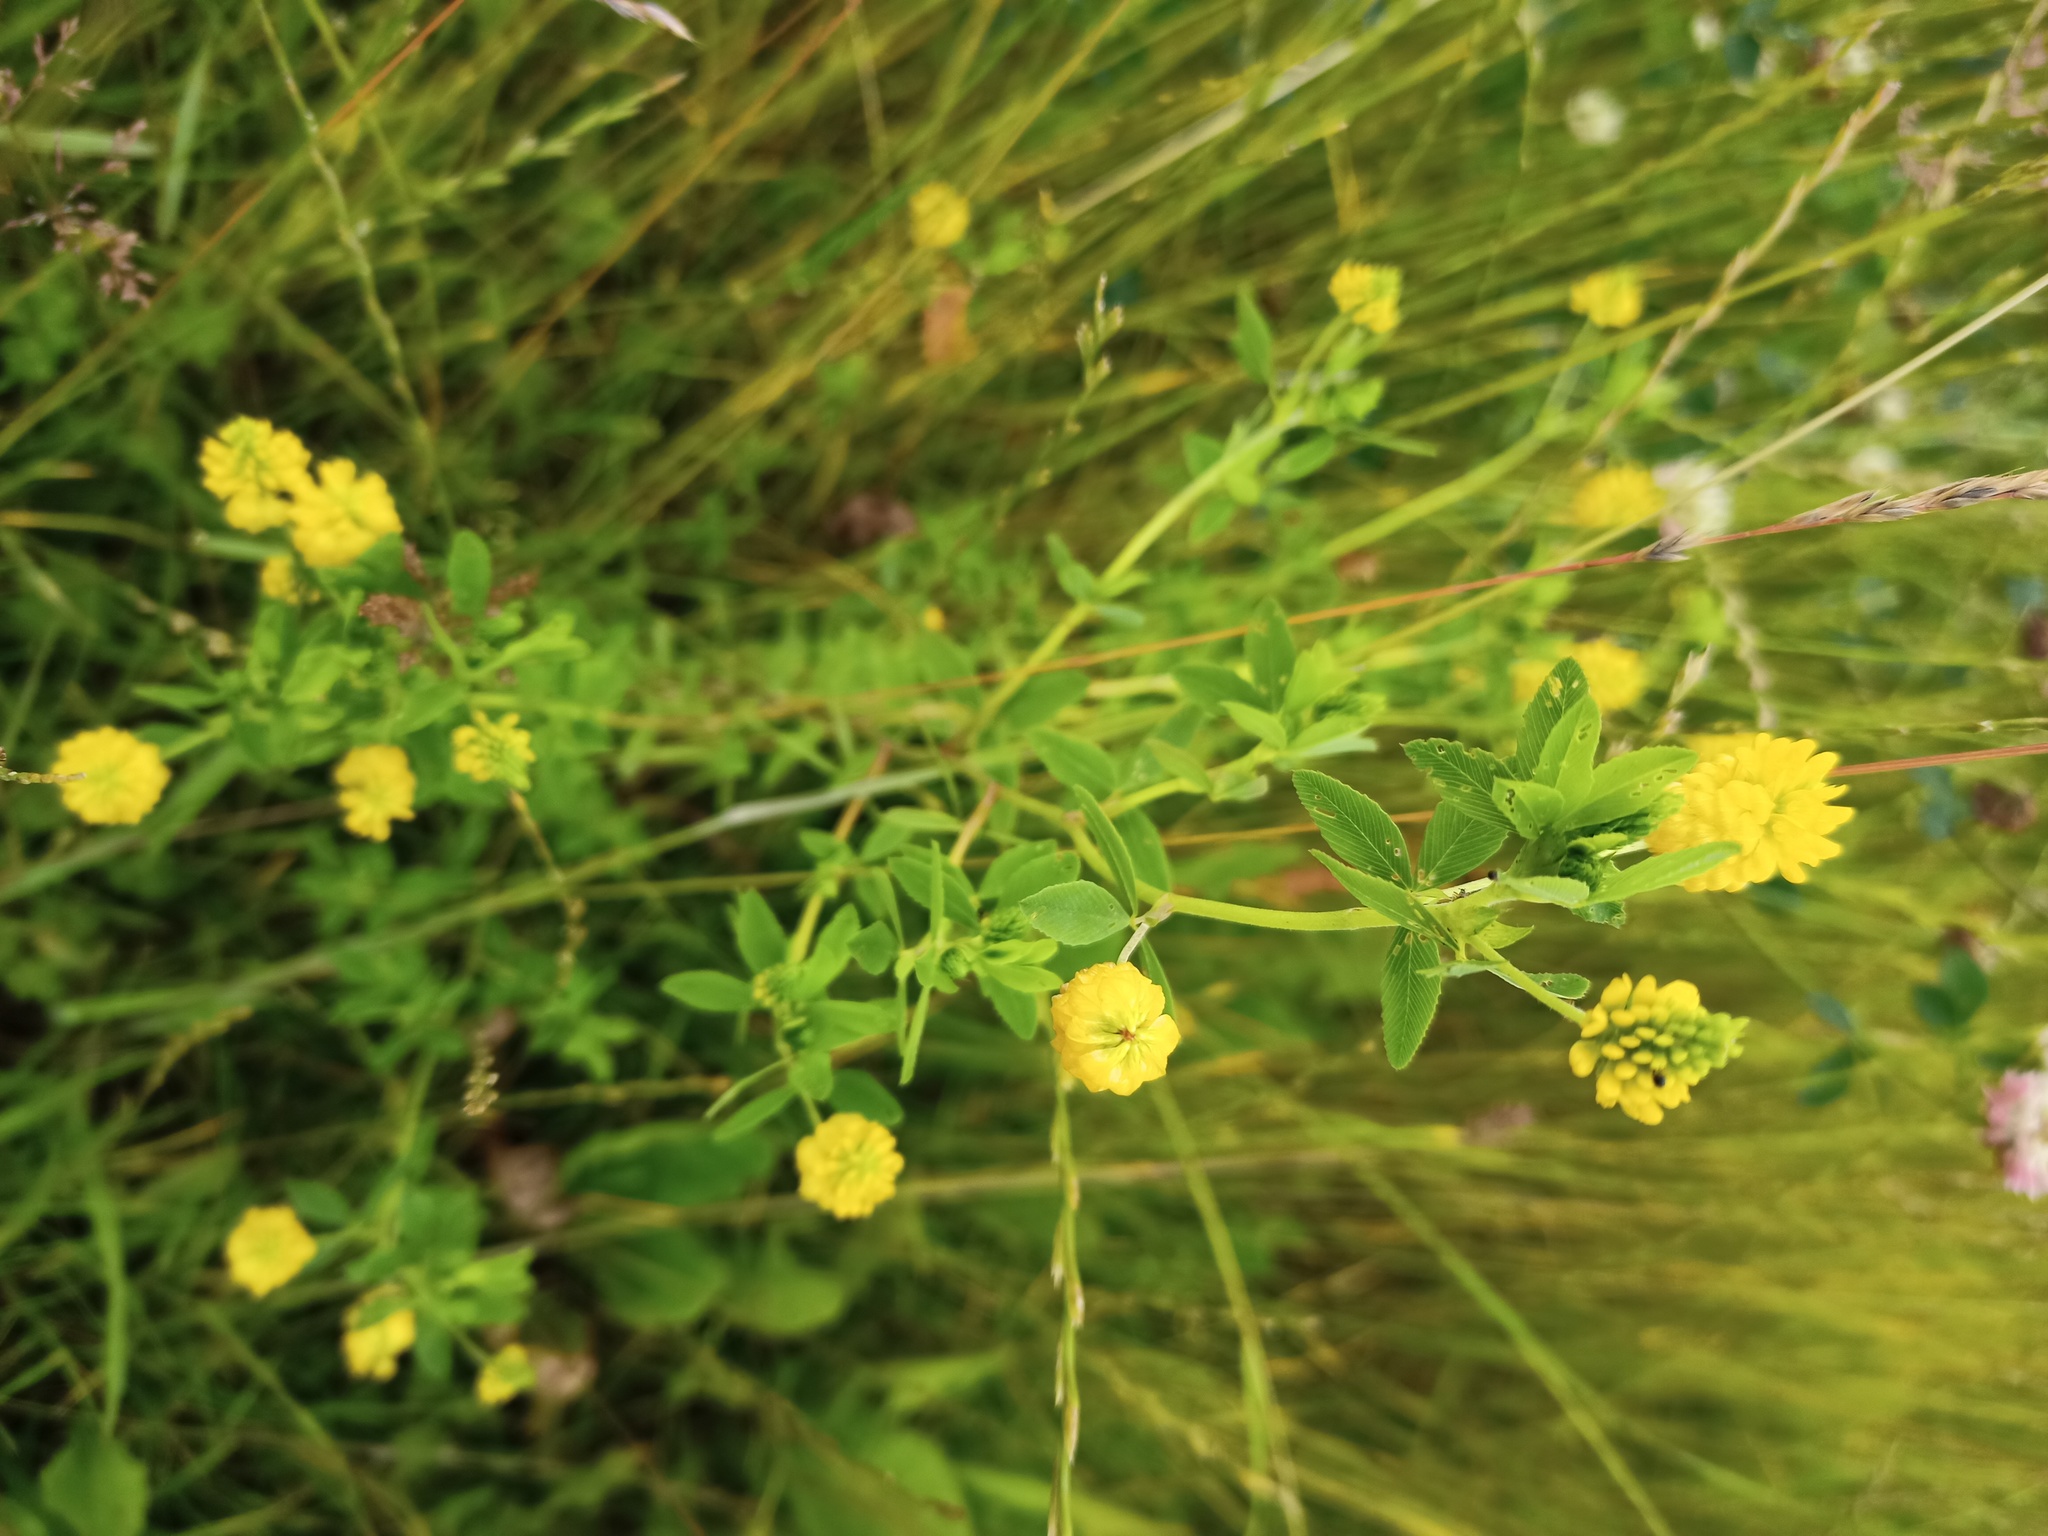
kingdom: Plantae
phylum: Tracheophyta
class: Magnoliopsida
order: Fabales
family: Fabaceae
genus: Trifolium
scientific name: Trifolium aureum
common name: Golden clover
